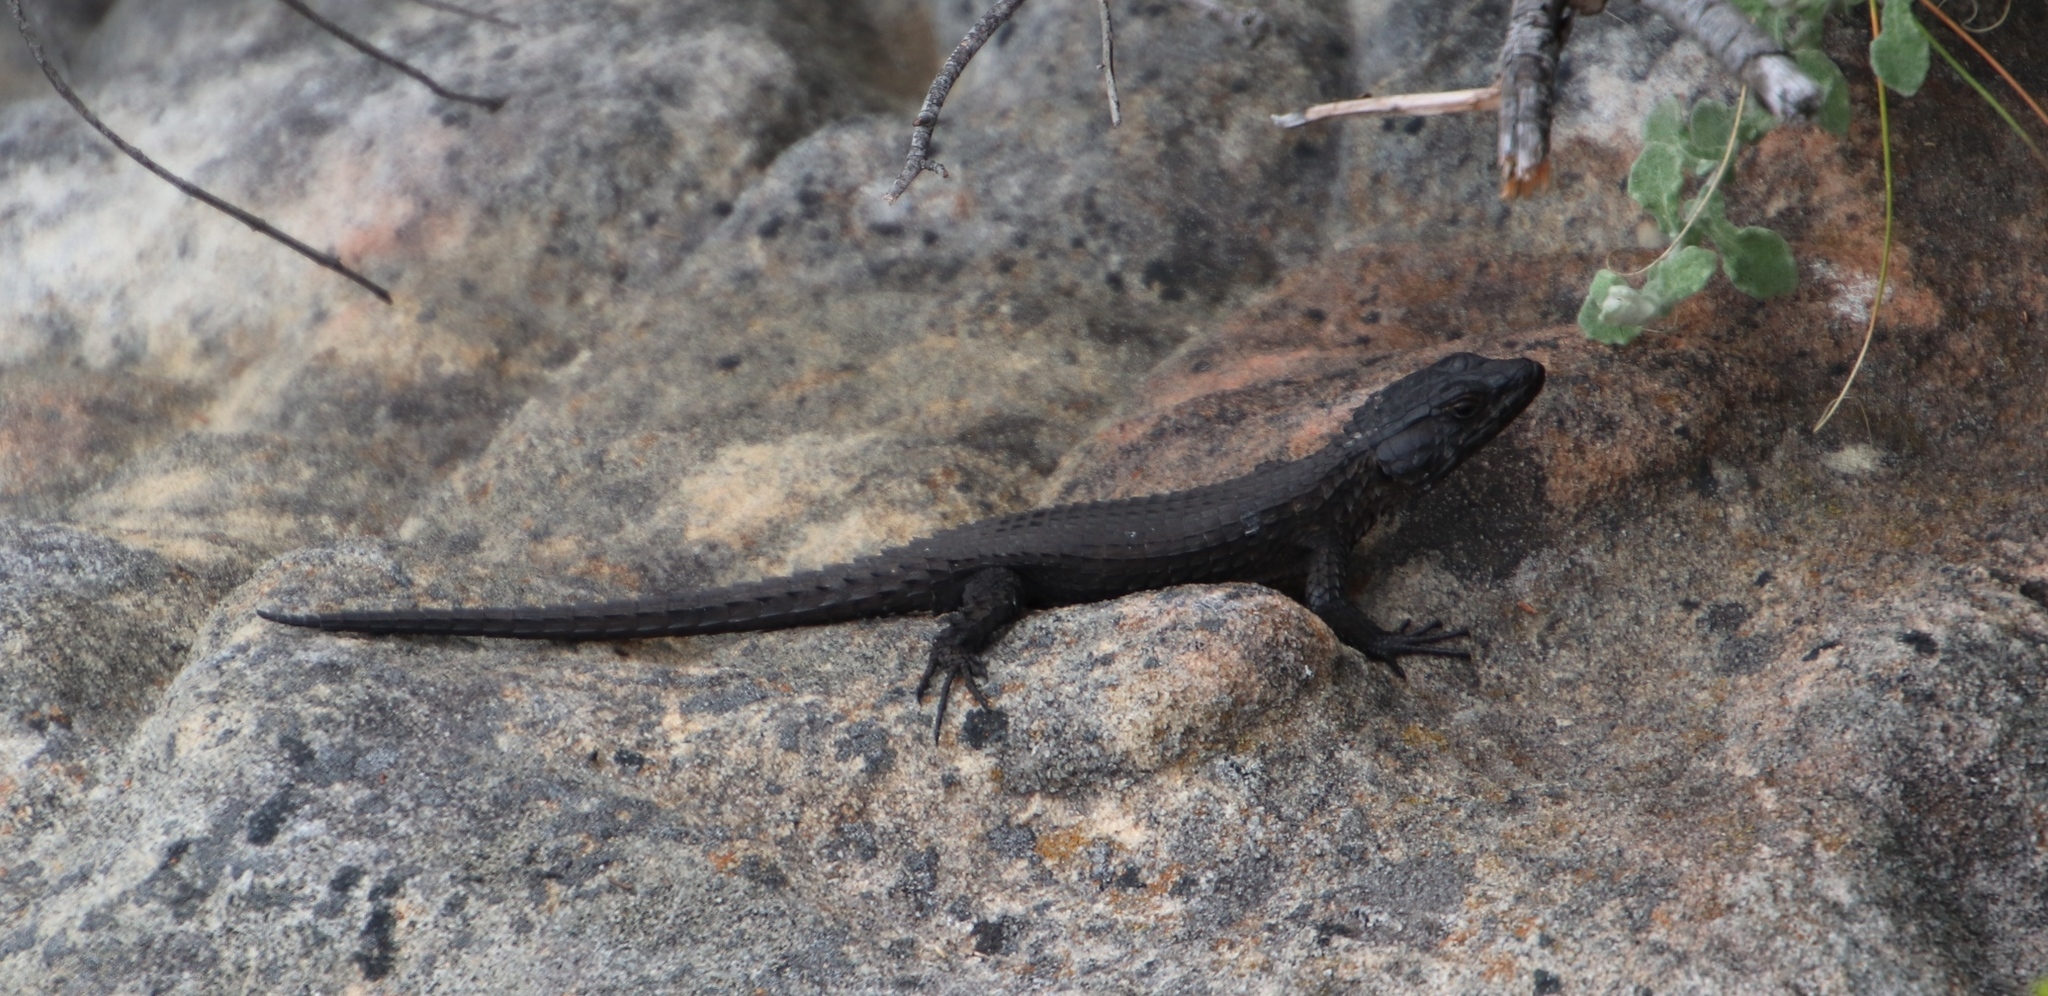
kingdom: Animalia
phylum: Chordata
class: Squamata
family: Cordylidae
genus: Cordylus
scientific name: Cordylus niger
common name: Black girdled lizard
